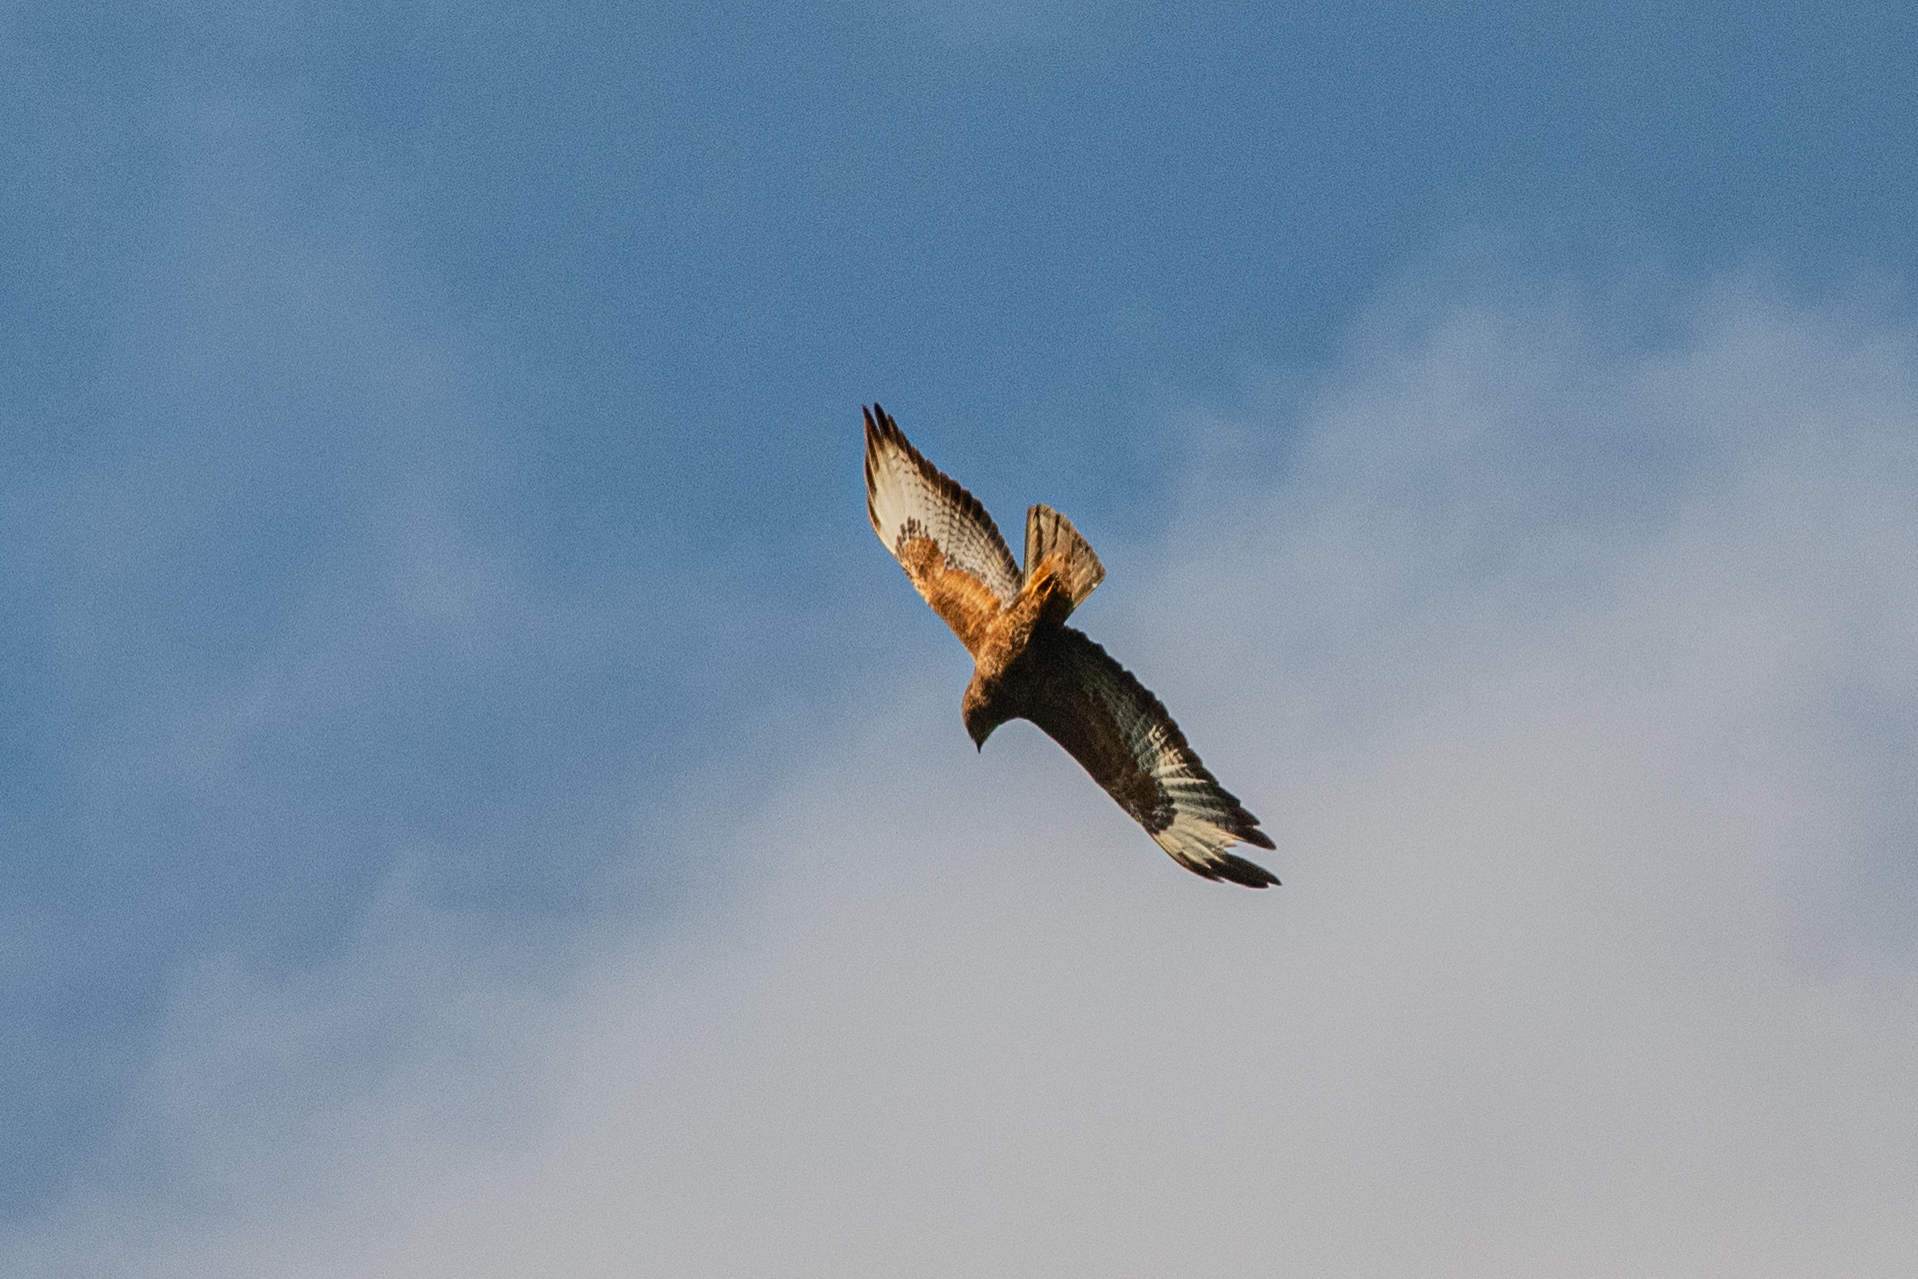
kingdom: Animalia
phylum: Chordata
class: Aves
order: Accipitriformes
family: Accipitridae
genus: Buteo
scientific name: Buteo buteo
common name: Common buzzard
